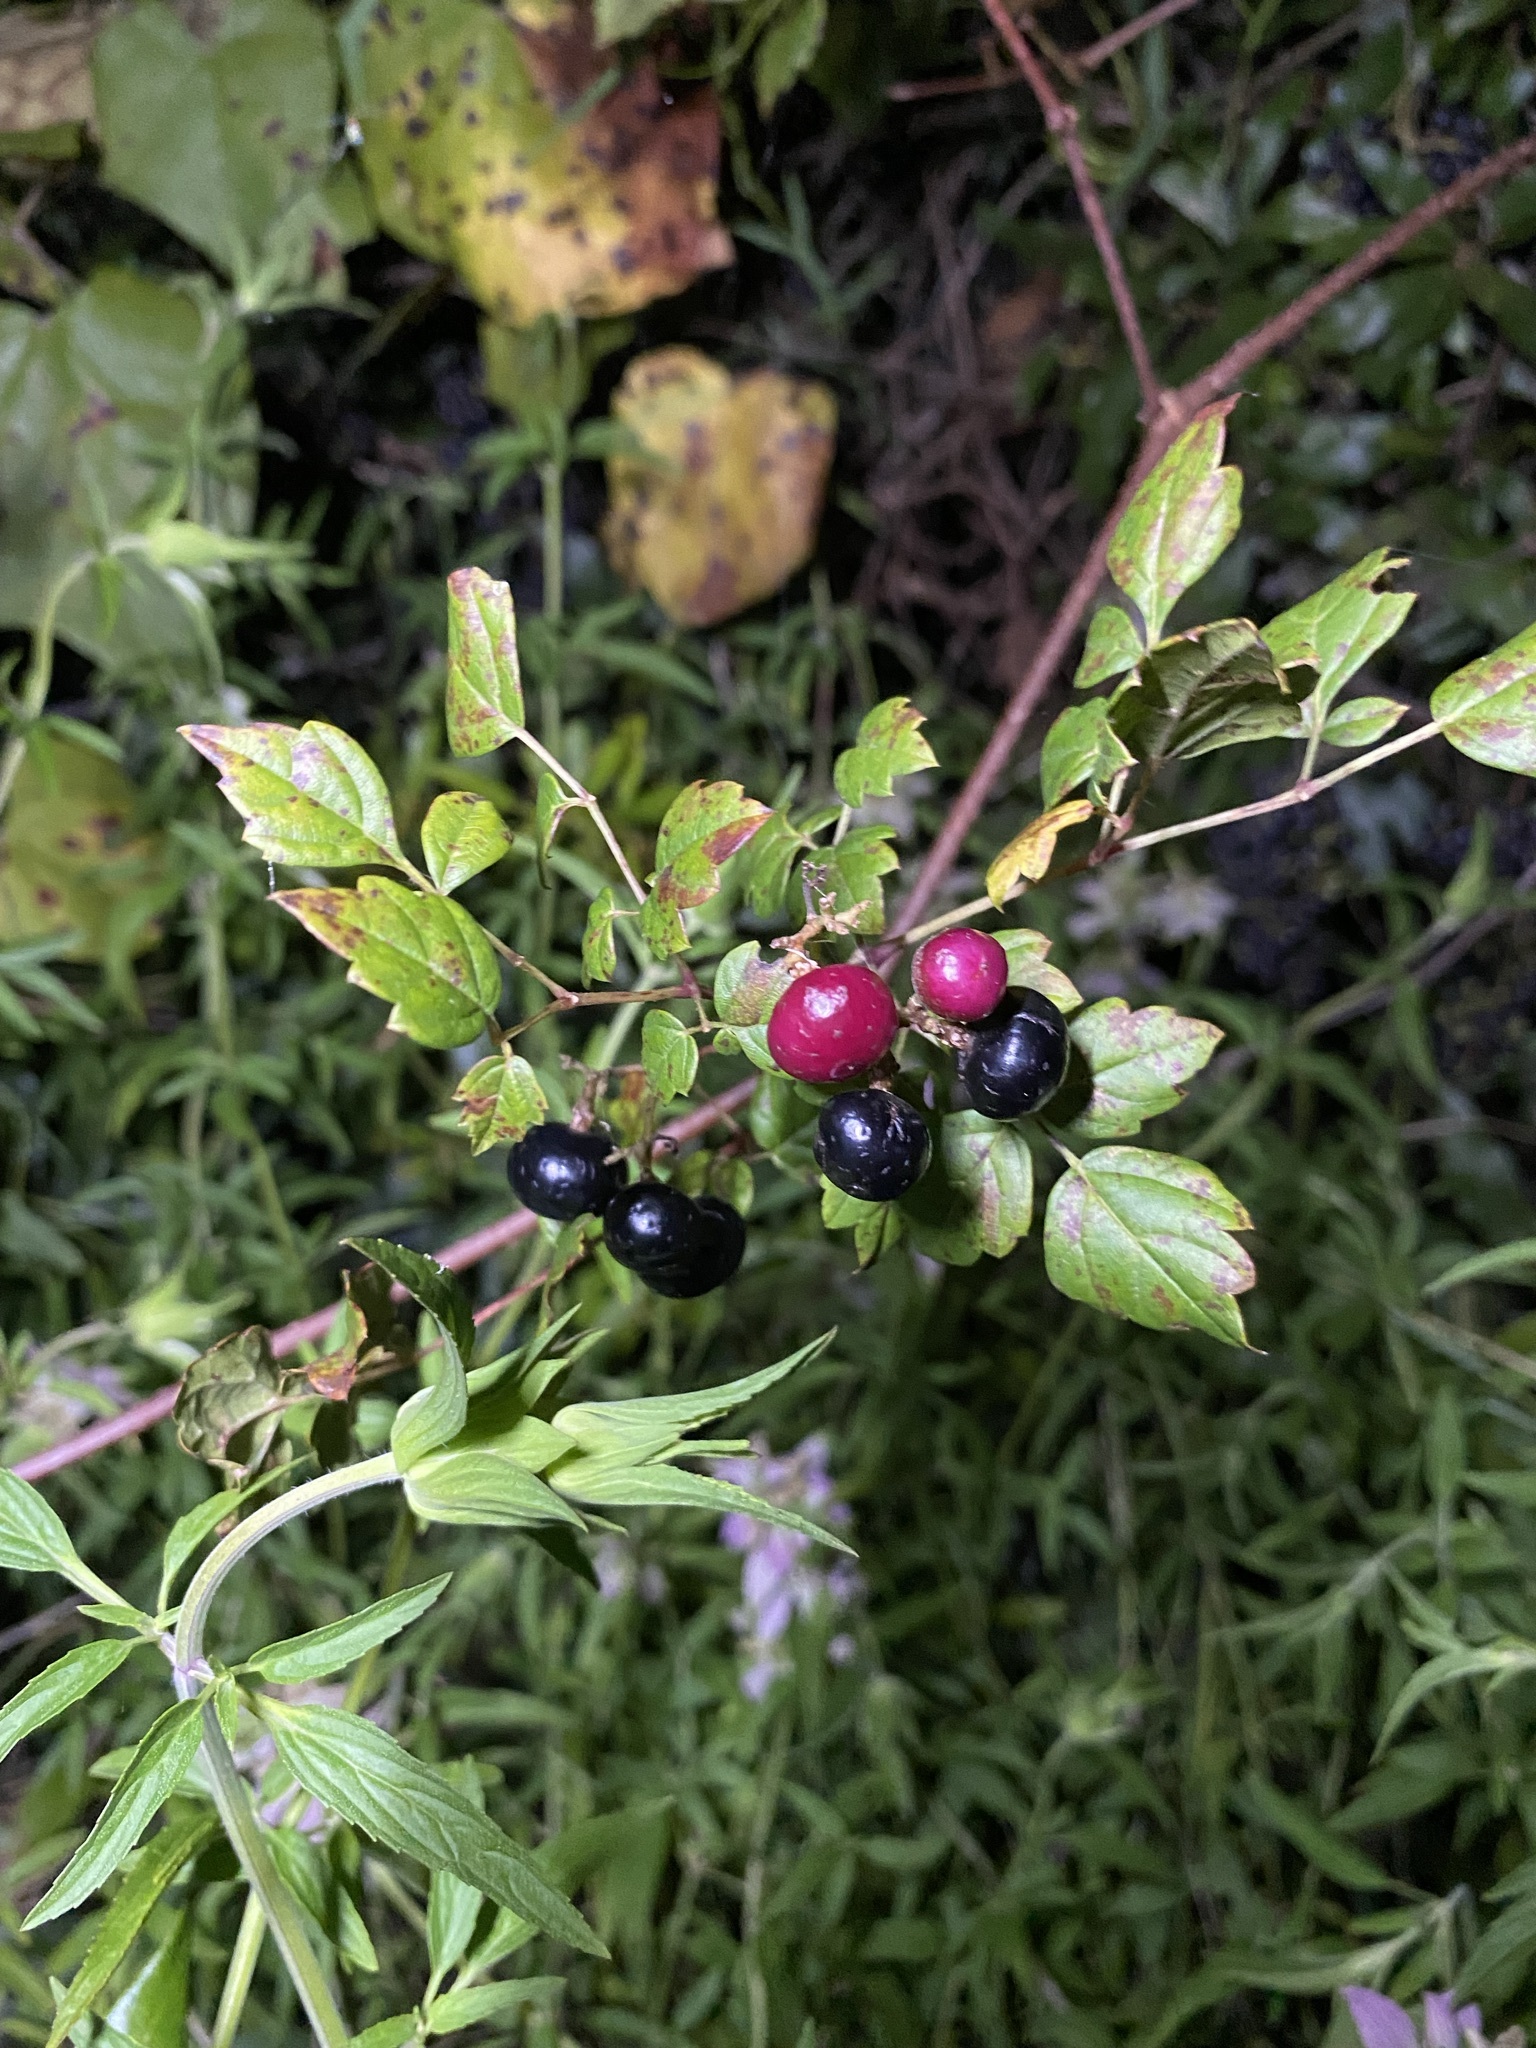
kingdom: Plantae
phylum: Tracheophyta
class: Magnoliopsida
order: Vitales
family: Vitaceae
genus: Nekemias
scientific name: Nekemias arborea
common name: Peppervine
